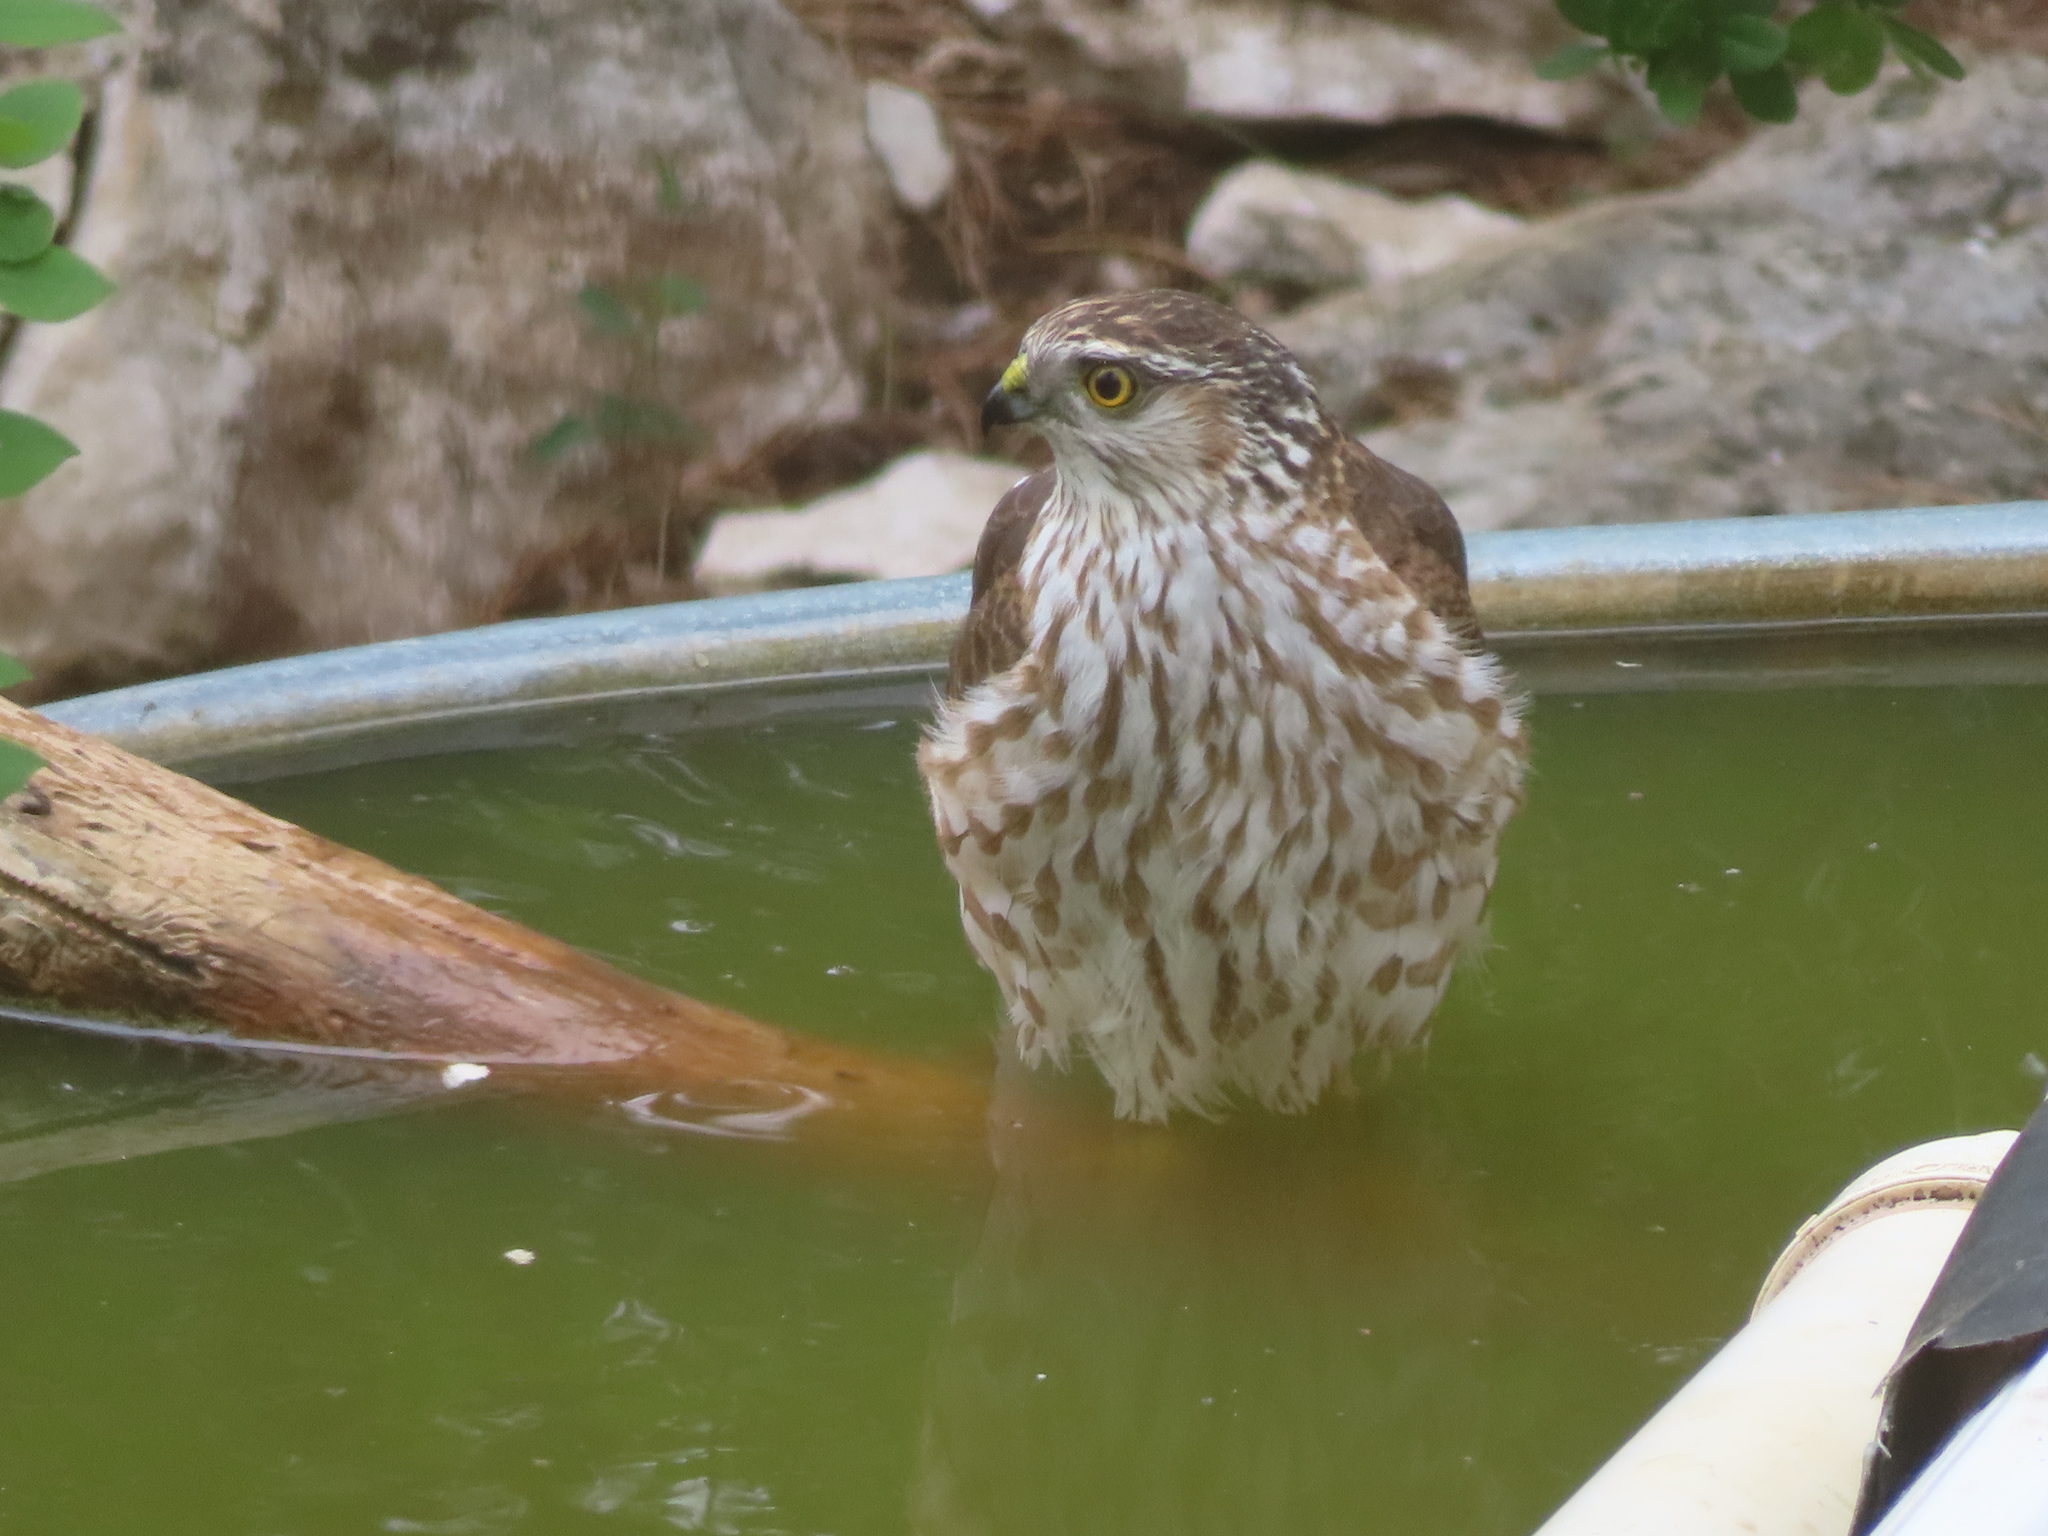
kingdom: Animalia
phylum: Chordata
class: Aves
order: Accipitriformes
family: Accipitridae
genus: Accipiter
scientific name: Accipiter striatus
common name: Sharp-shinned hawk
